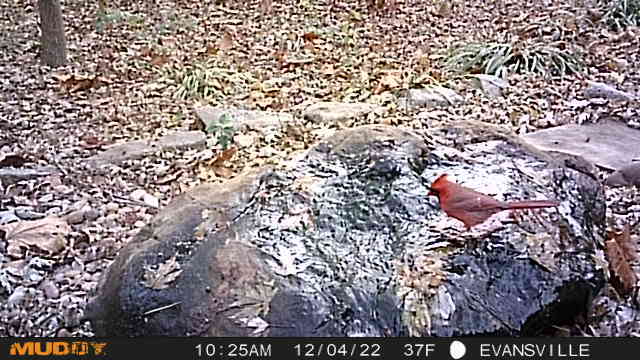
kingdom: Animalia
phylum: Chordata
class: Aves
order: Passeriformes
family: Cardinalidae
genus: Cardinalis
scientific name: Cardinalis cardinalis
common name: Northern cardinal
